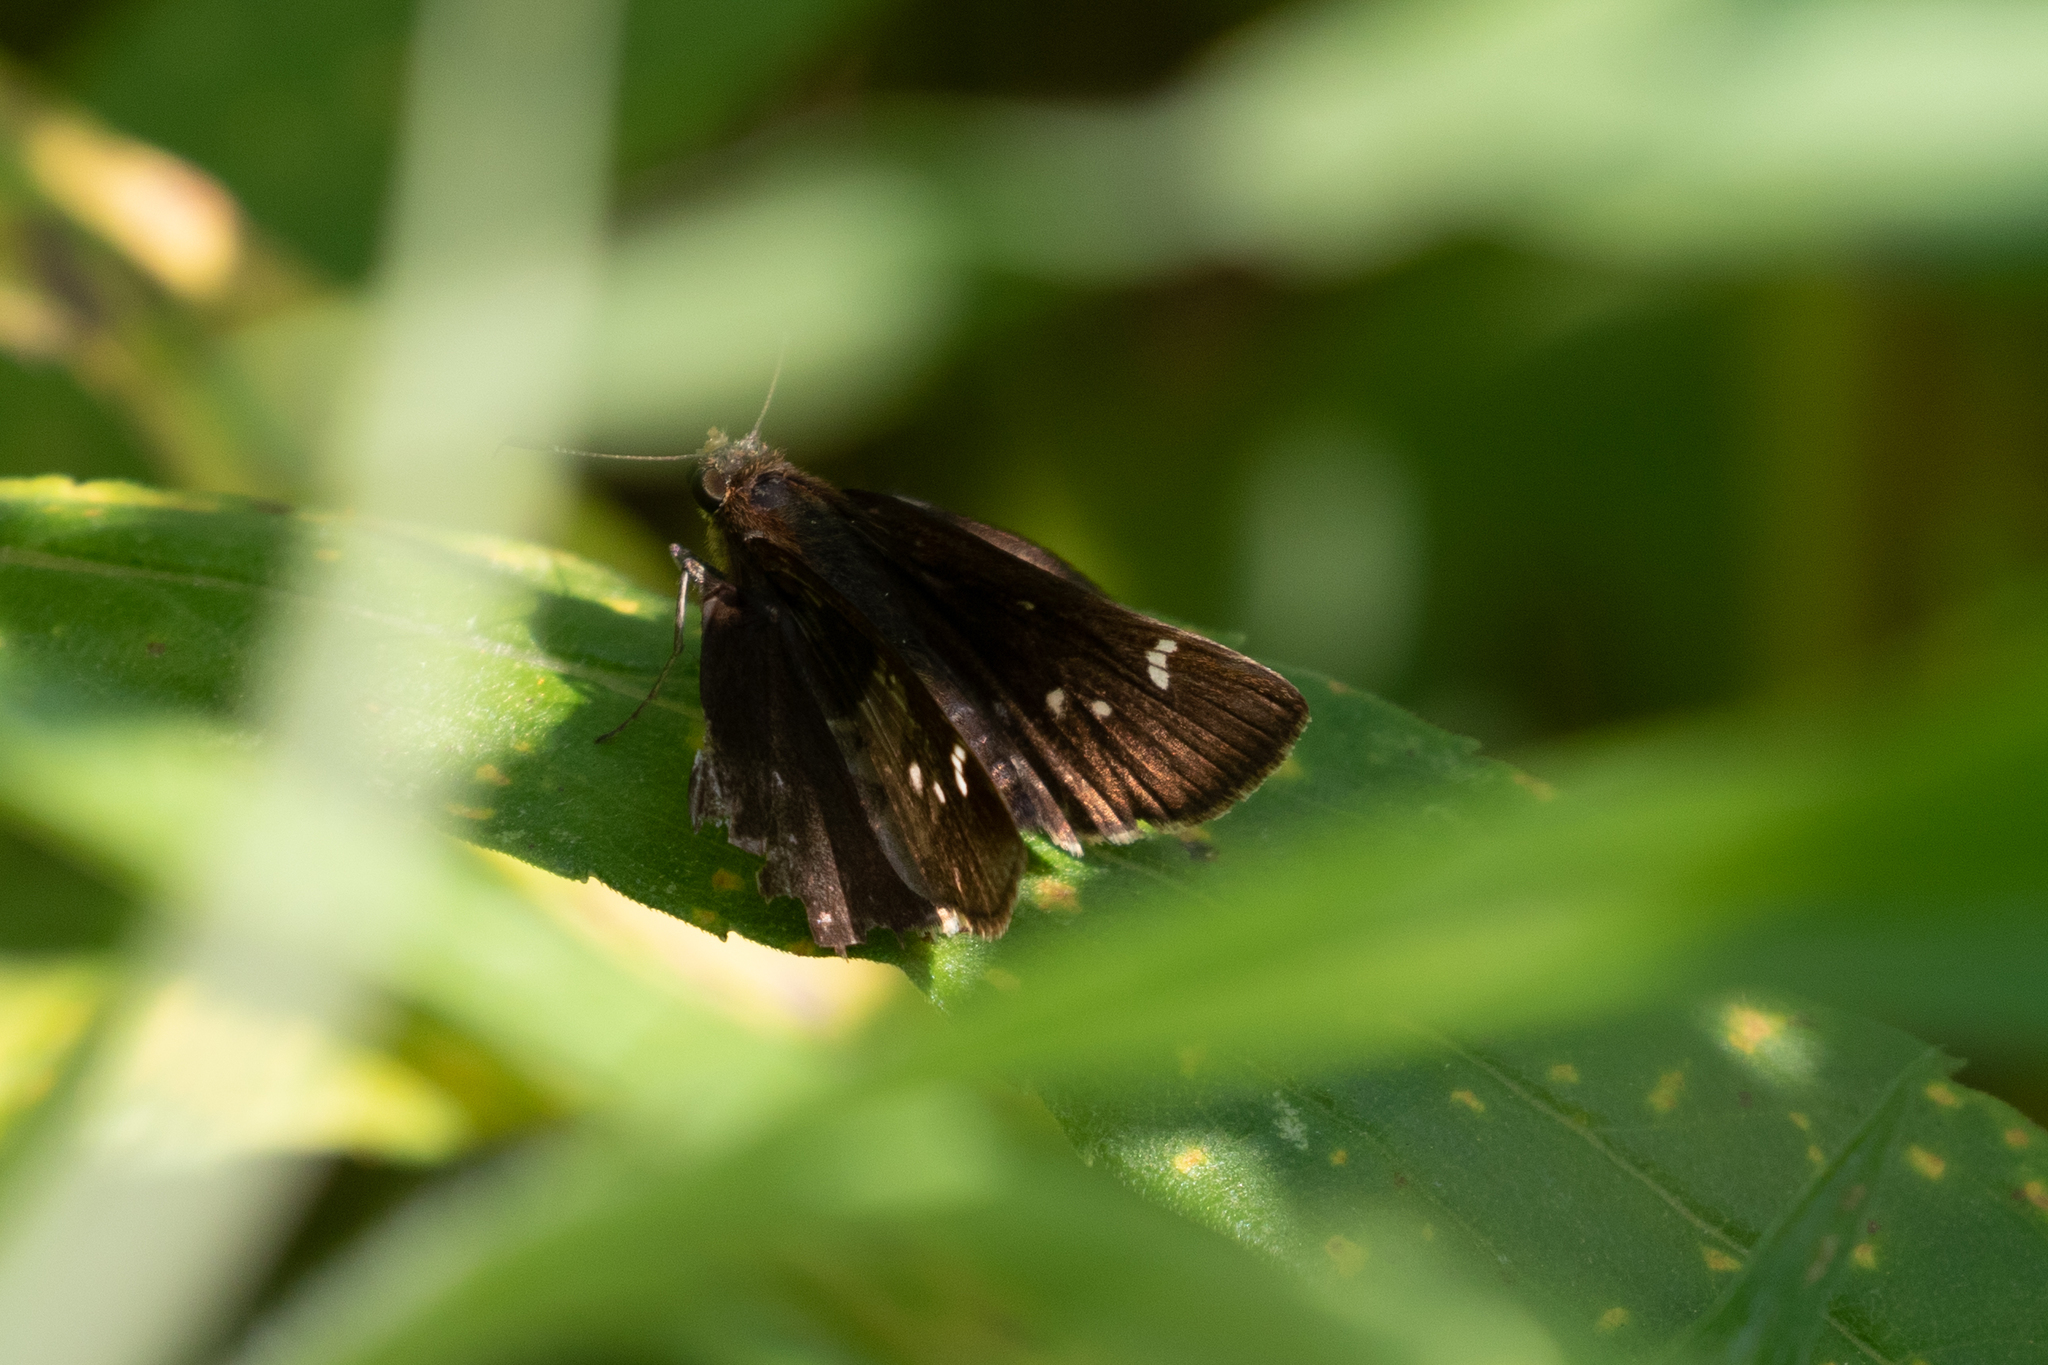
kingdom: Animalia
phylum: Arthropoda
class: Insecta
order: Lepidoptera
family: Hesperiidae
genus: Lerema
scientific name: Lerema accius
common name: Clouded skipper
